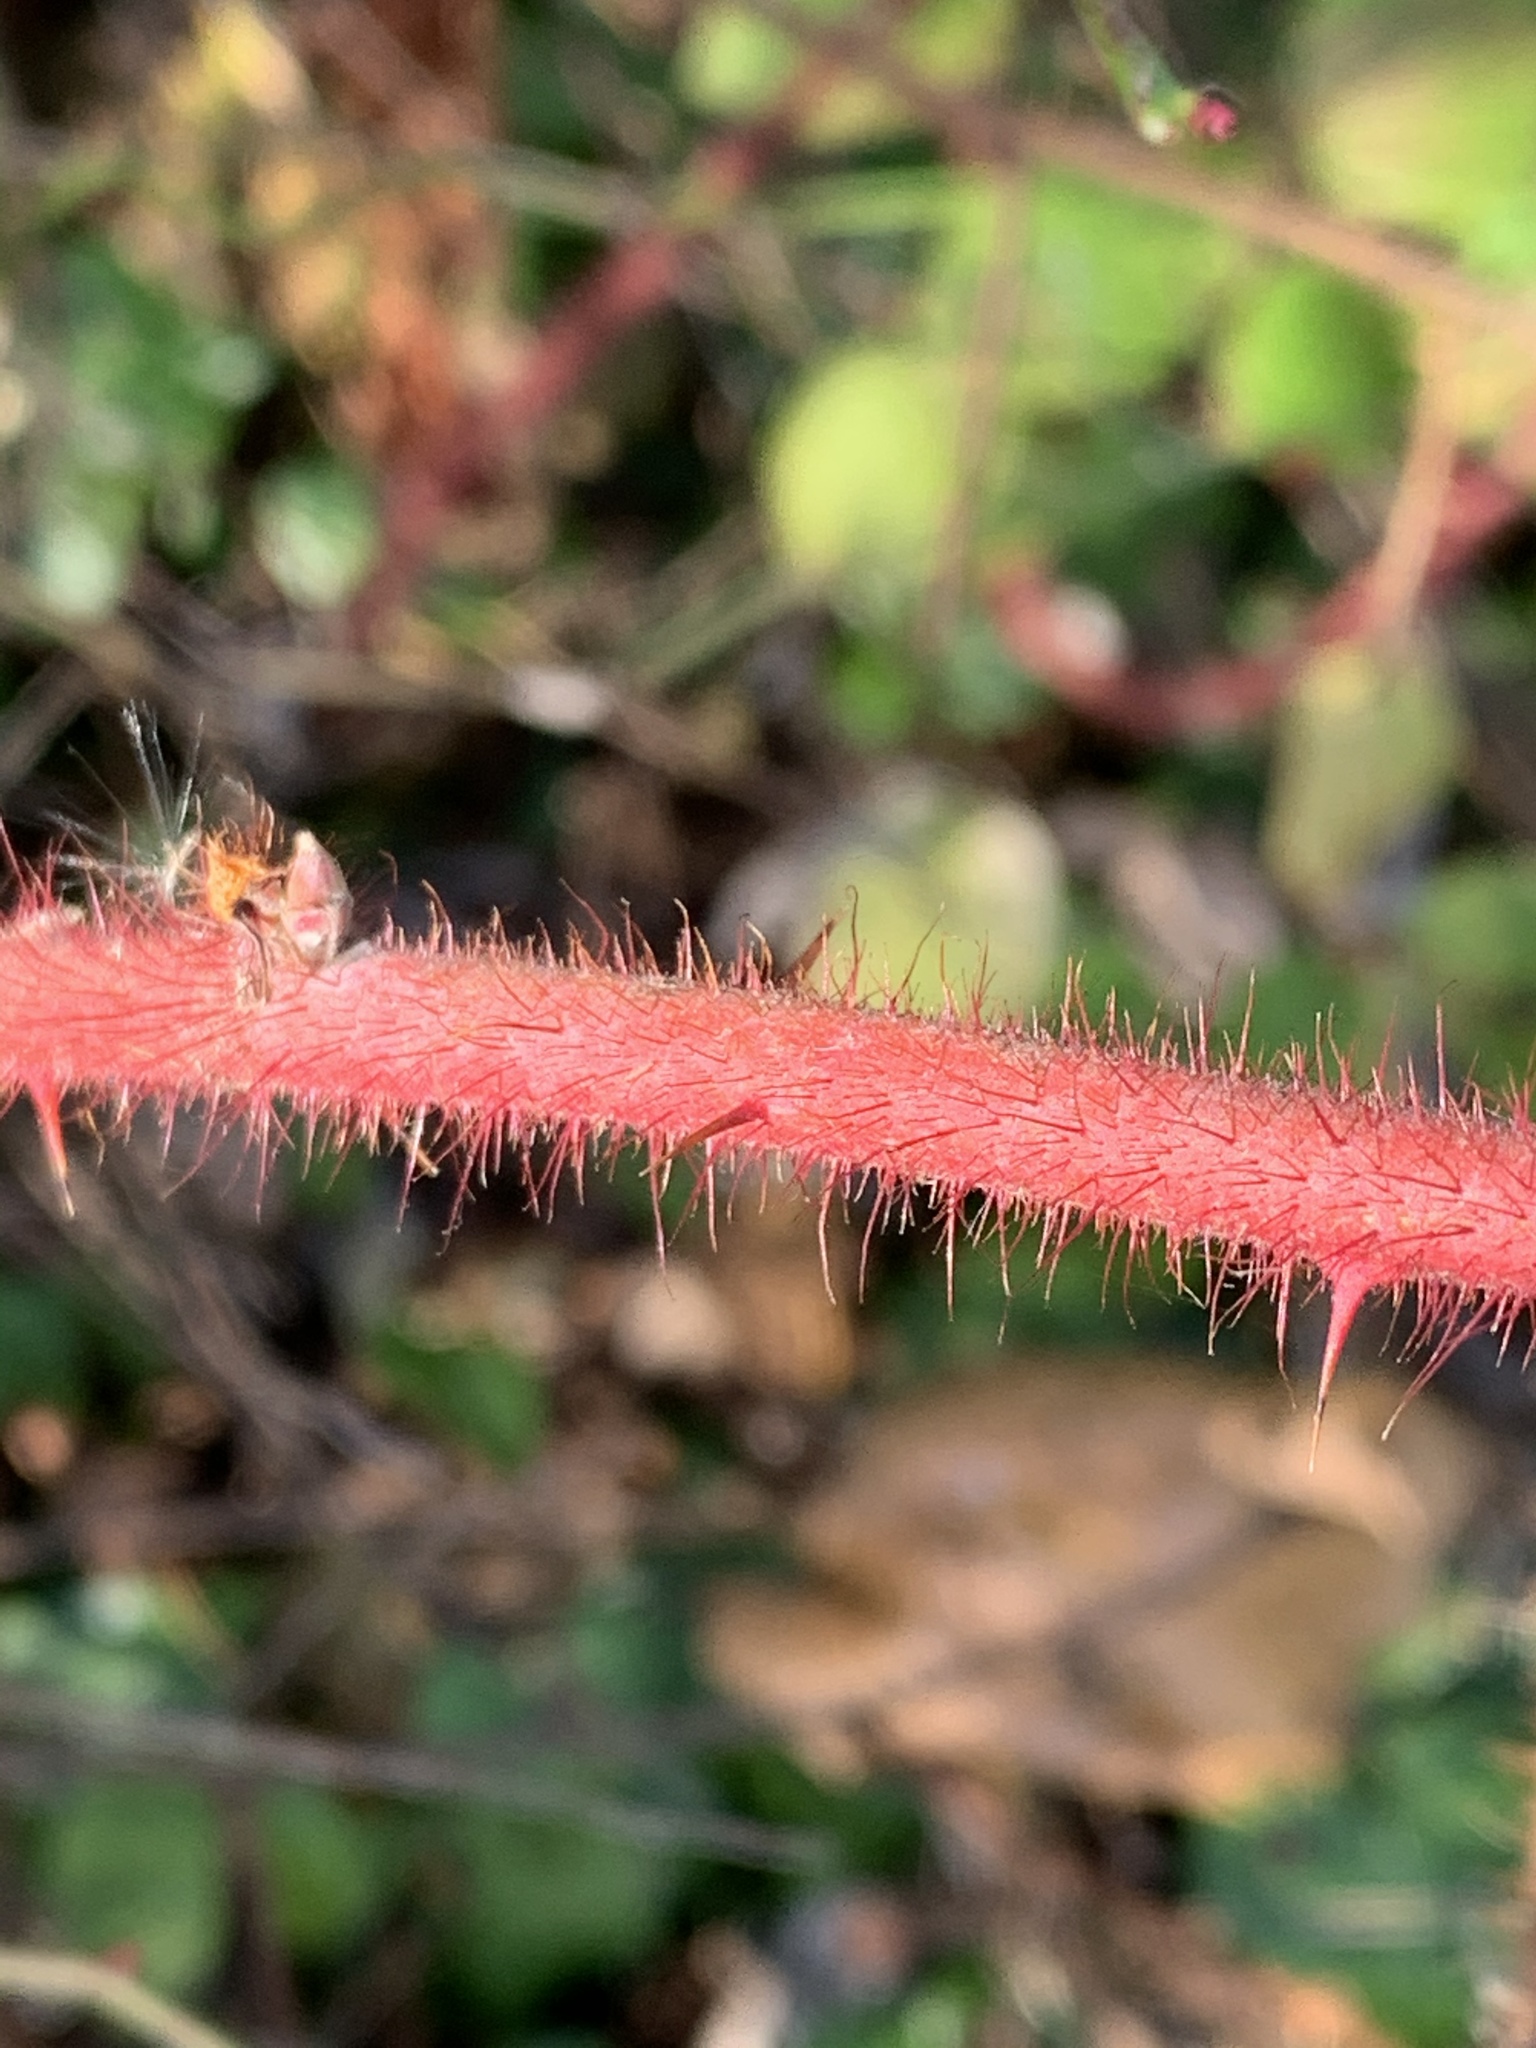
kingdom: Plantae
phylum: Tracheophyta
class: Magnoliopsida
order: Rosales
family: Rosaceae
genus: Rubus
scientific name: Rubus phoenicolasius
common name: Japanese wineberry
